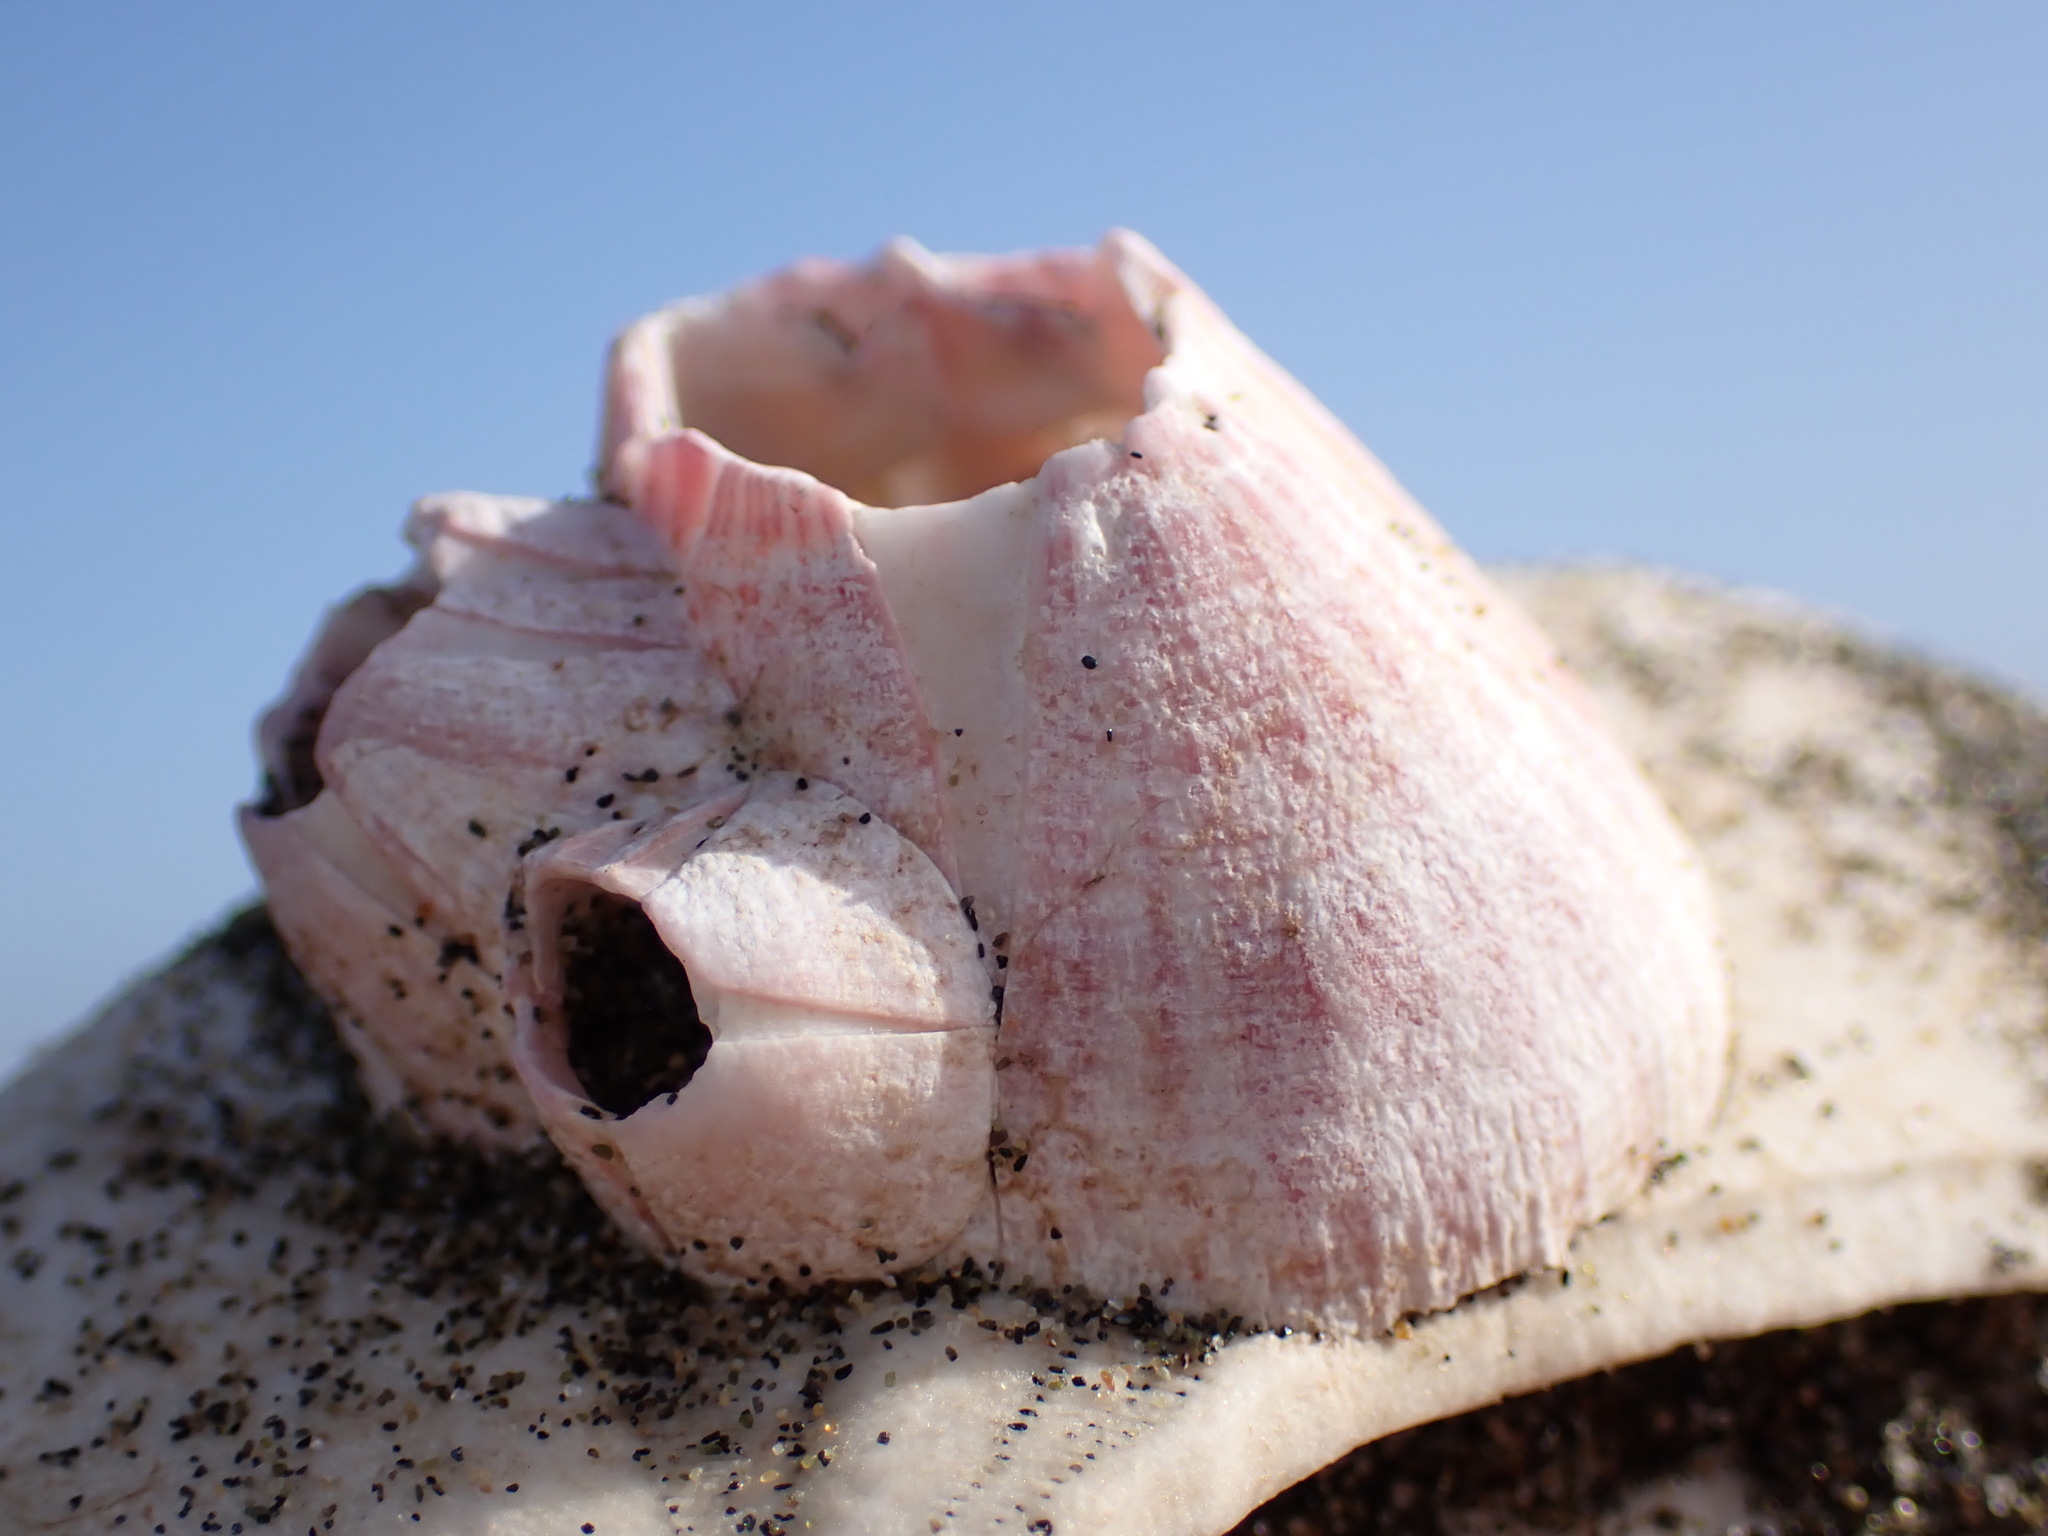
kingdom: Animalia
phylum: Arthropoda
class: Maxillopoda
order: Sessilia
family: Balanidae
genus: Paraconcavus
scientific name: Paraconcavus pacificus
